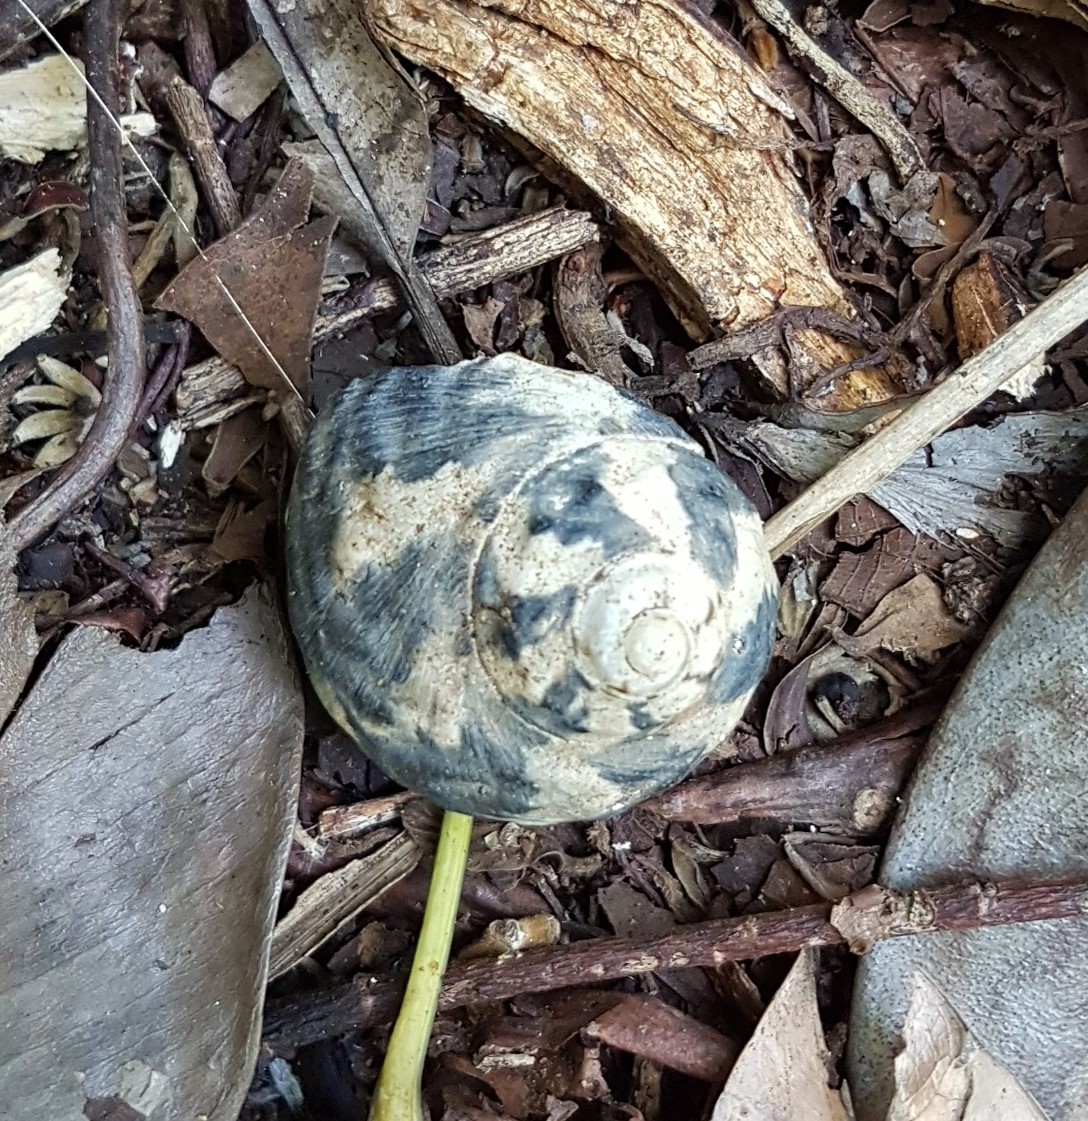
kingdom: Animalia
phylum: Mollusca
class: Gastropoda
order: Trochida
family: Tegulidae
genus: Cittarium
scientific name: Cittarium pica
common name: West indian topshell
